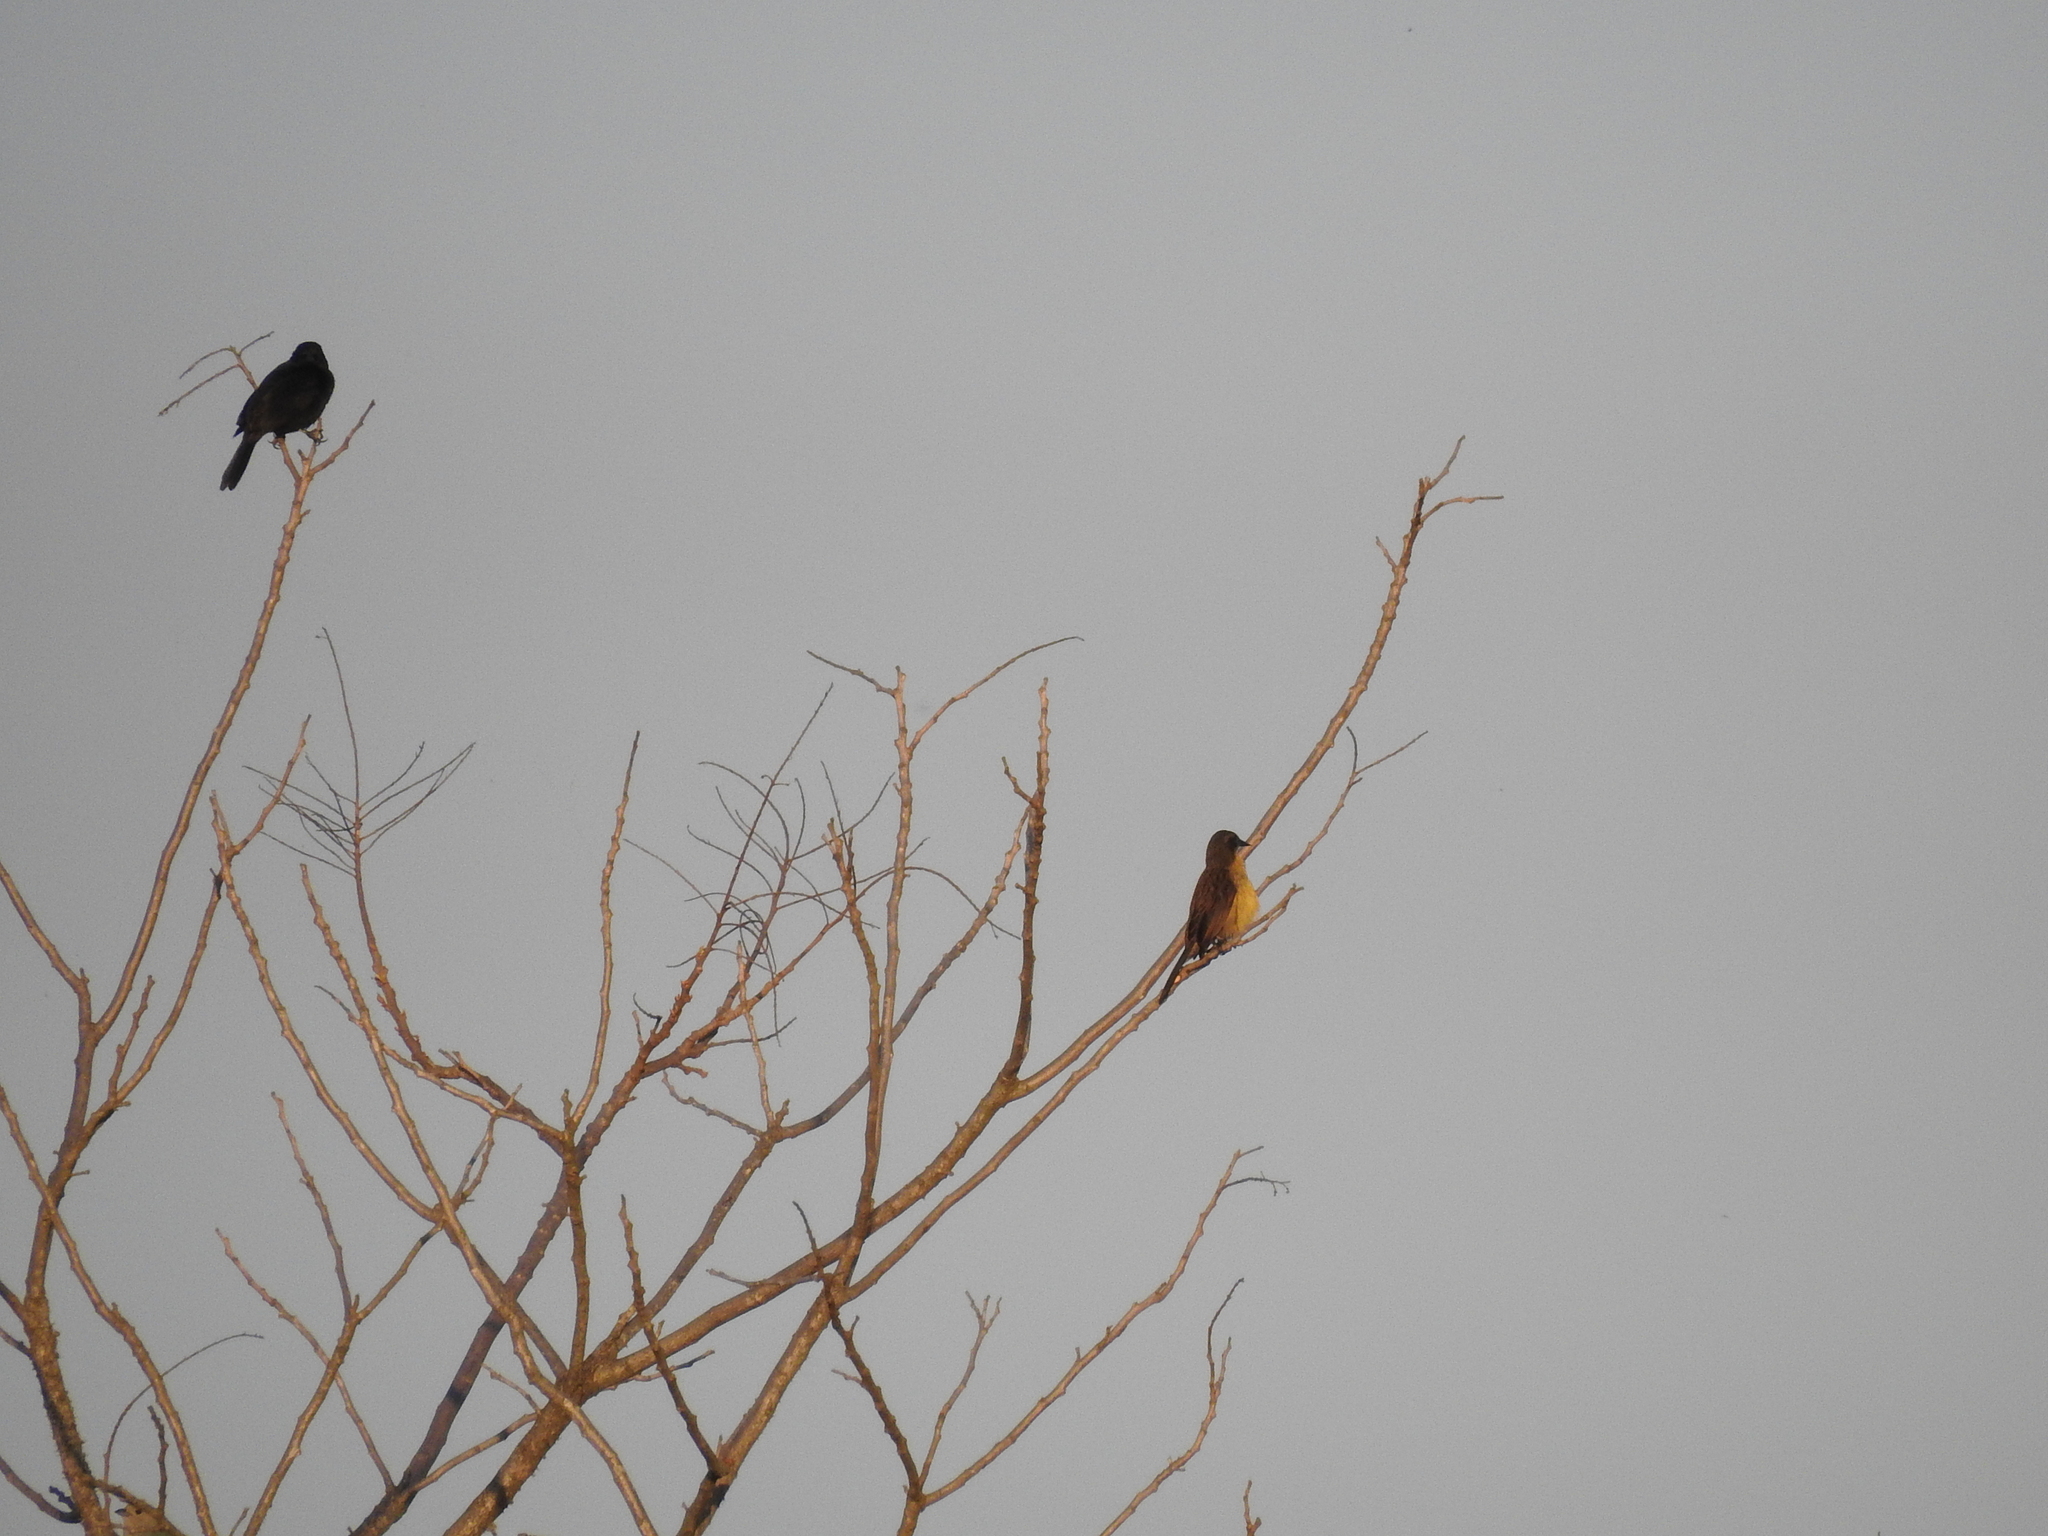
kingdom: Animalia
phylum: Chordata
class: Aves
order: Passeriformes
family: Icteridae
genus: Agelasticus
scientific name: Agelasticus cyanopus
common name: Unicolored blackbird
